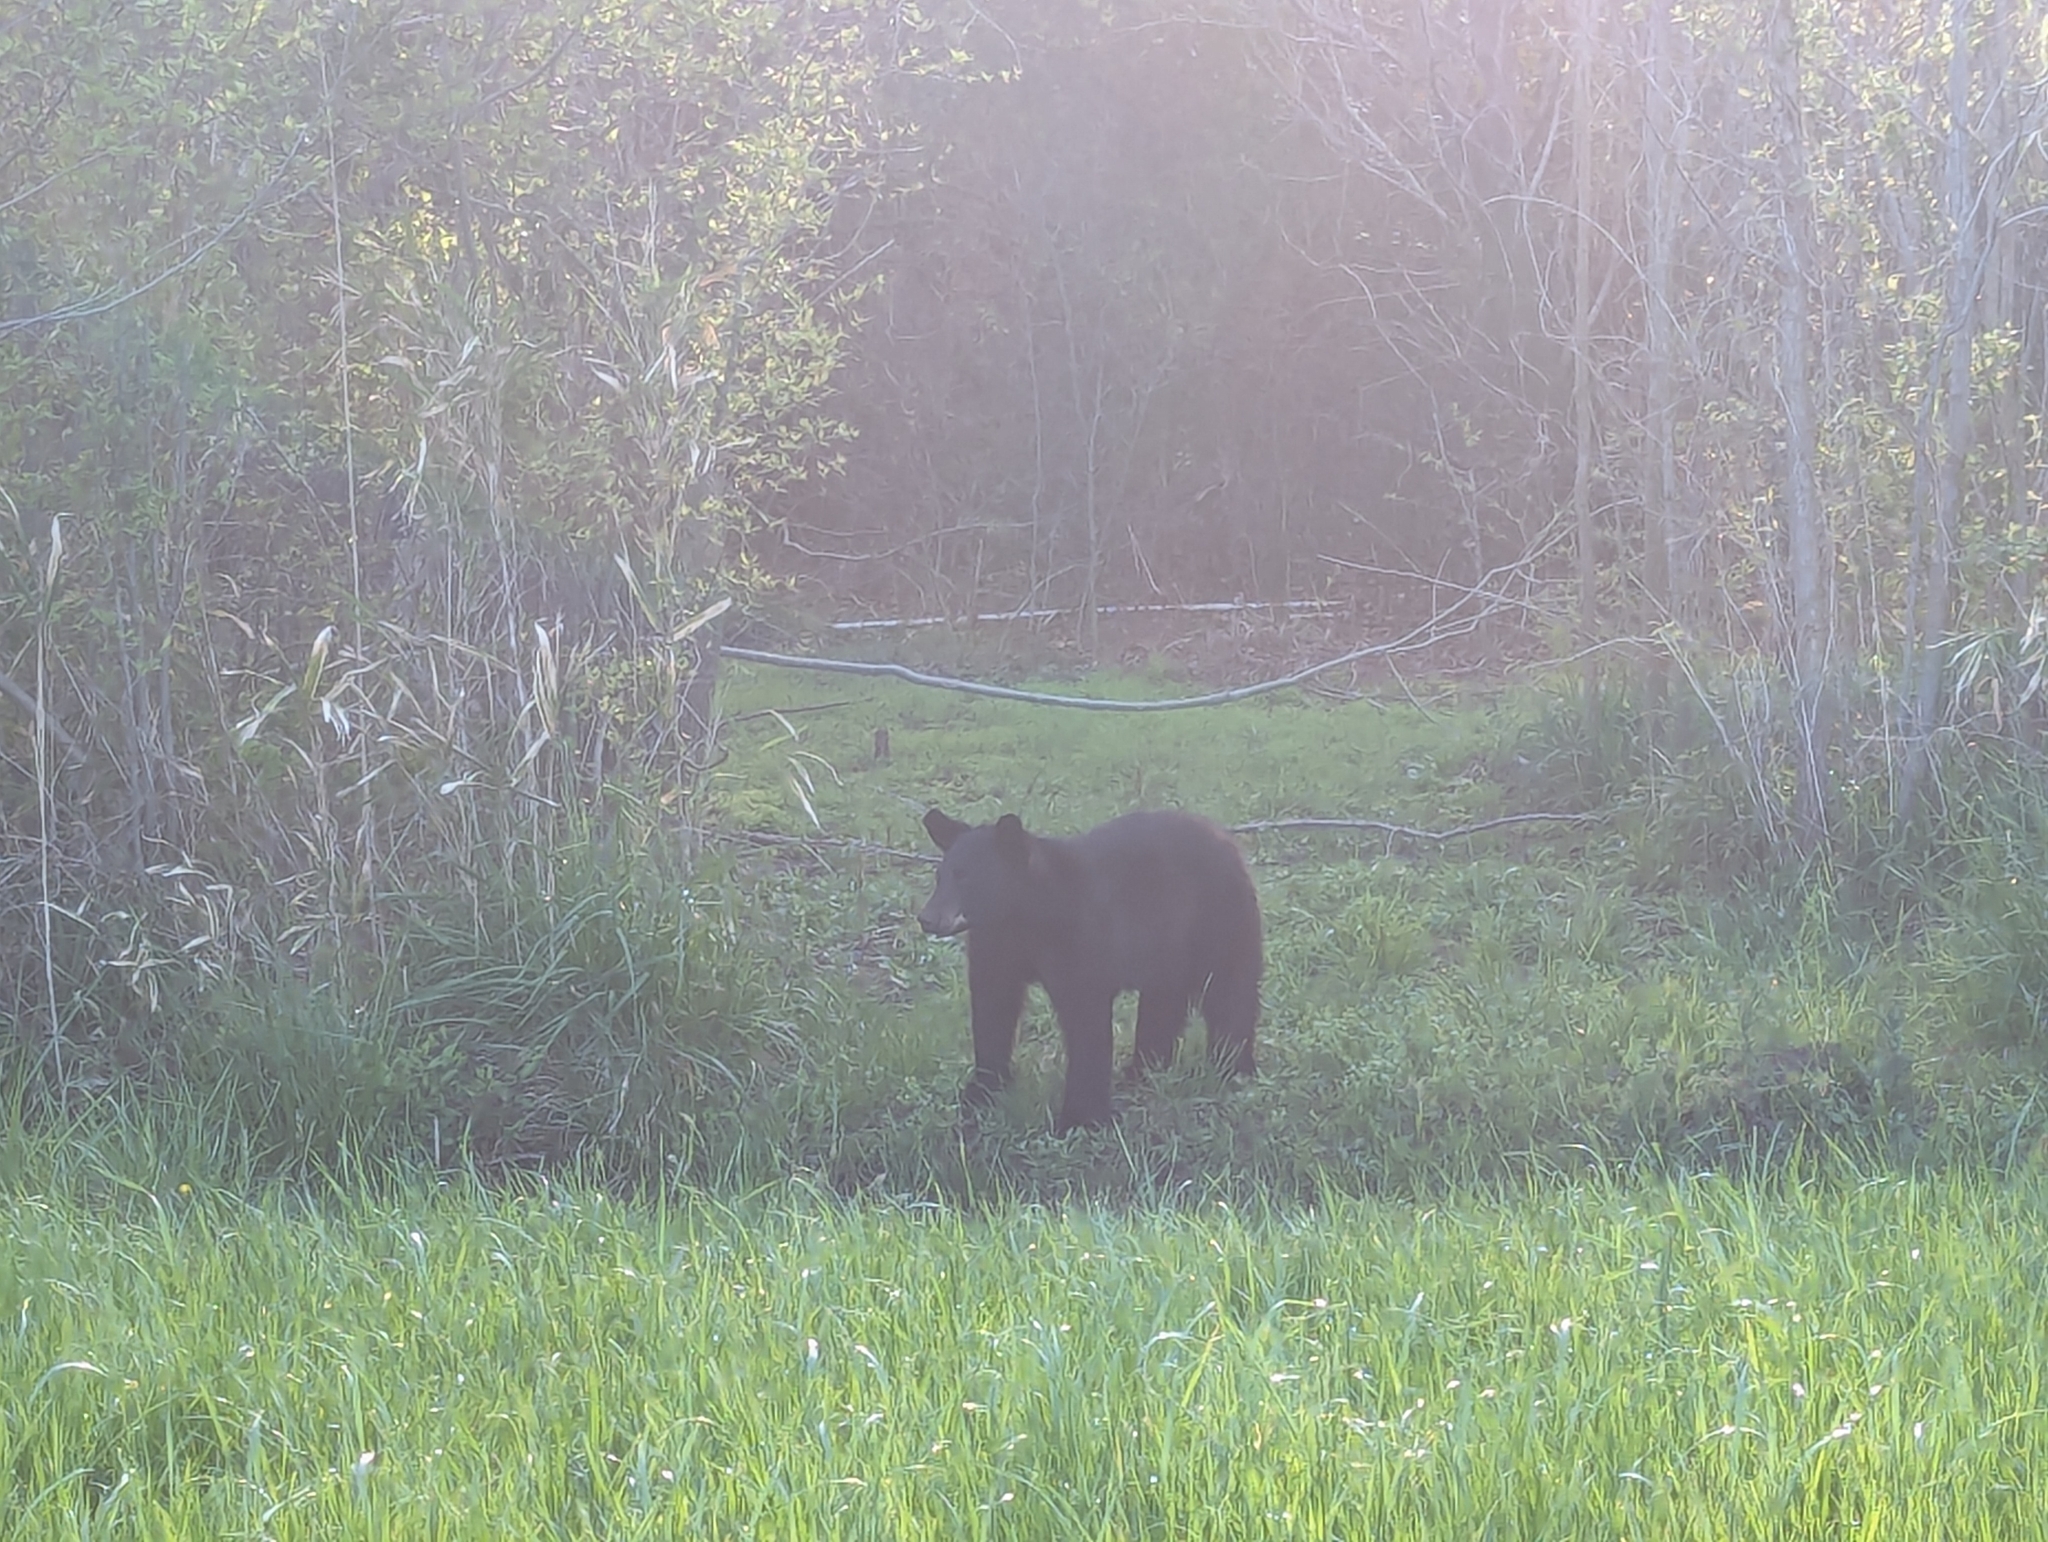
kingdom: Animalia
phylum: Chordata
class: Mammalia
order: Carnivora
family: Ursidae
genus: Ursus
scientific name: Ursus americanus
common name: American black bear
